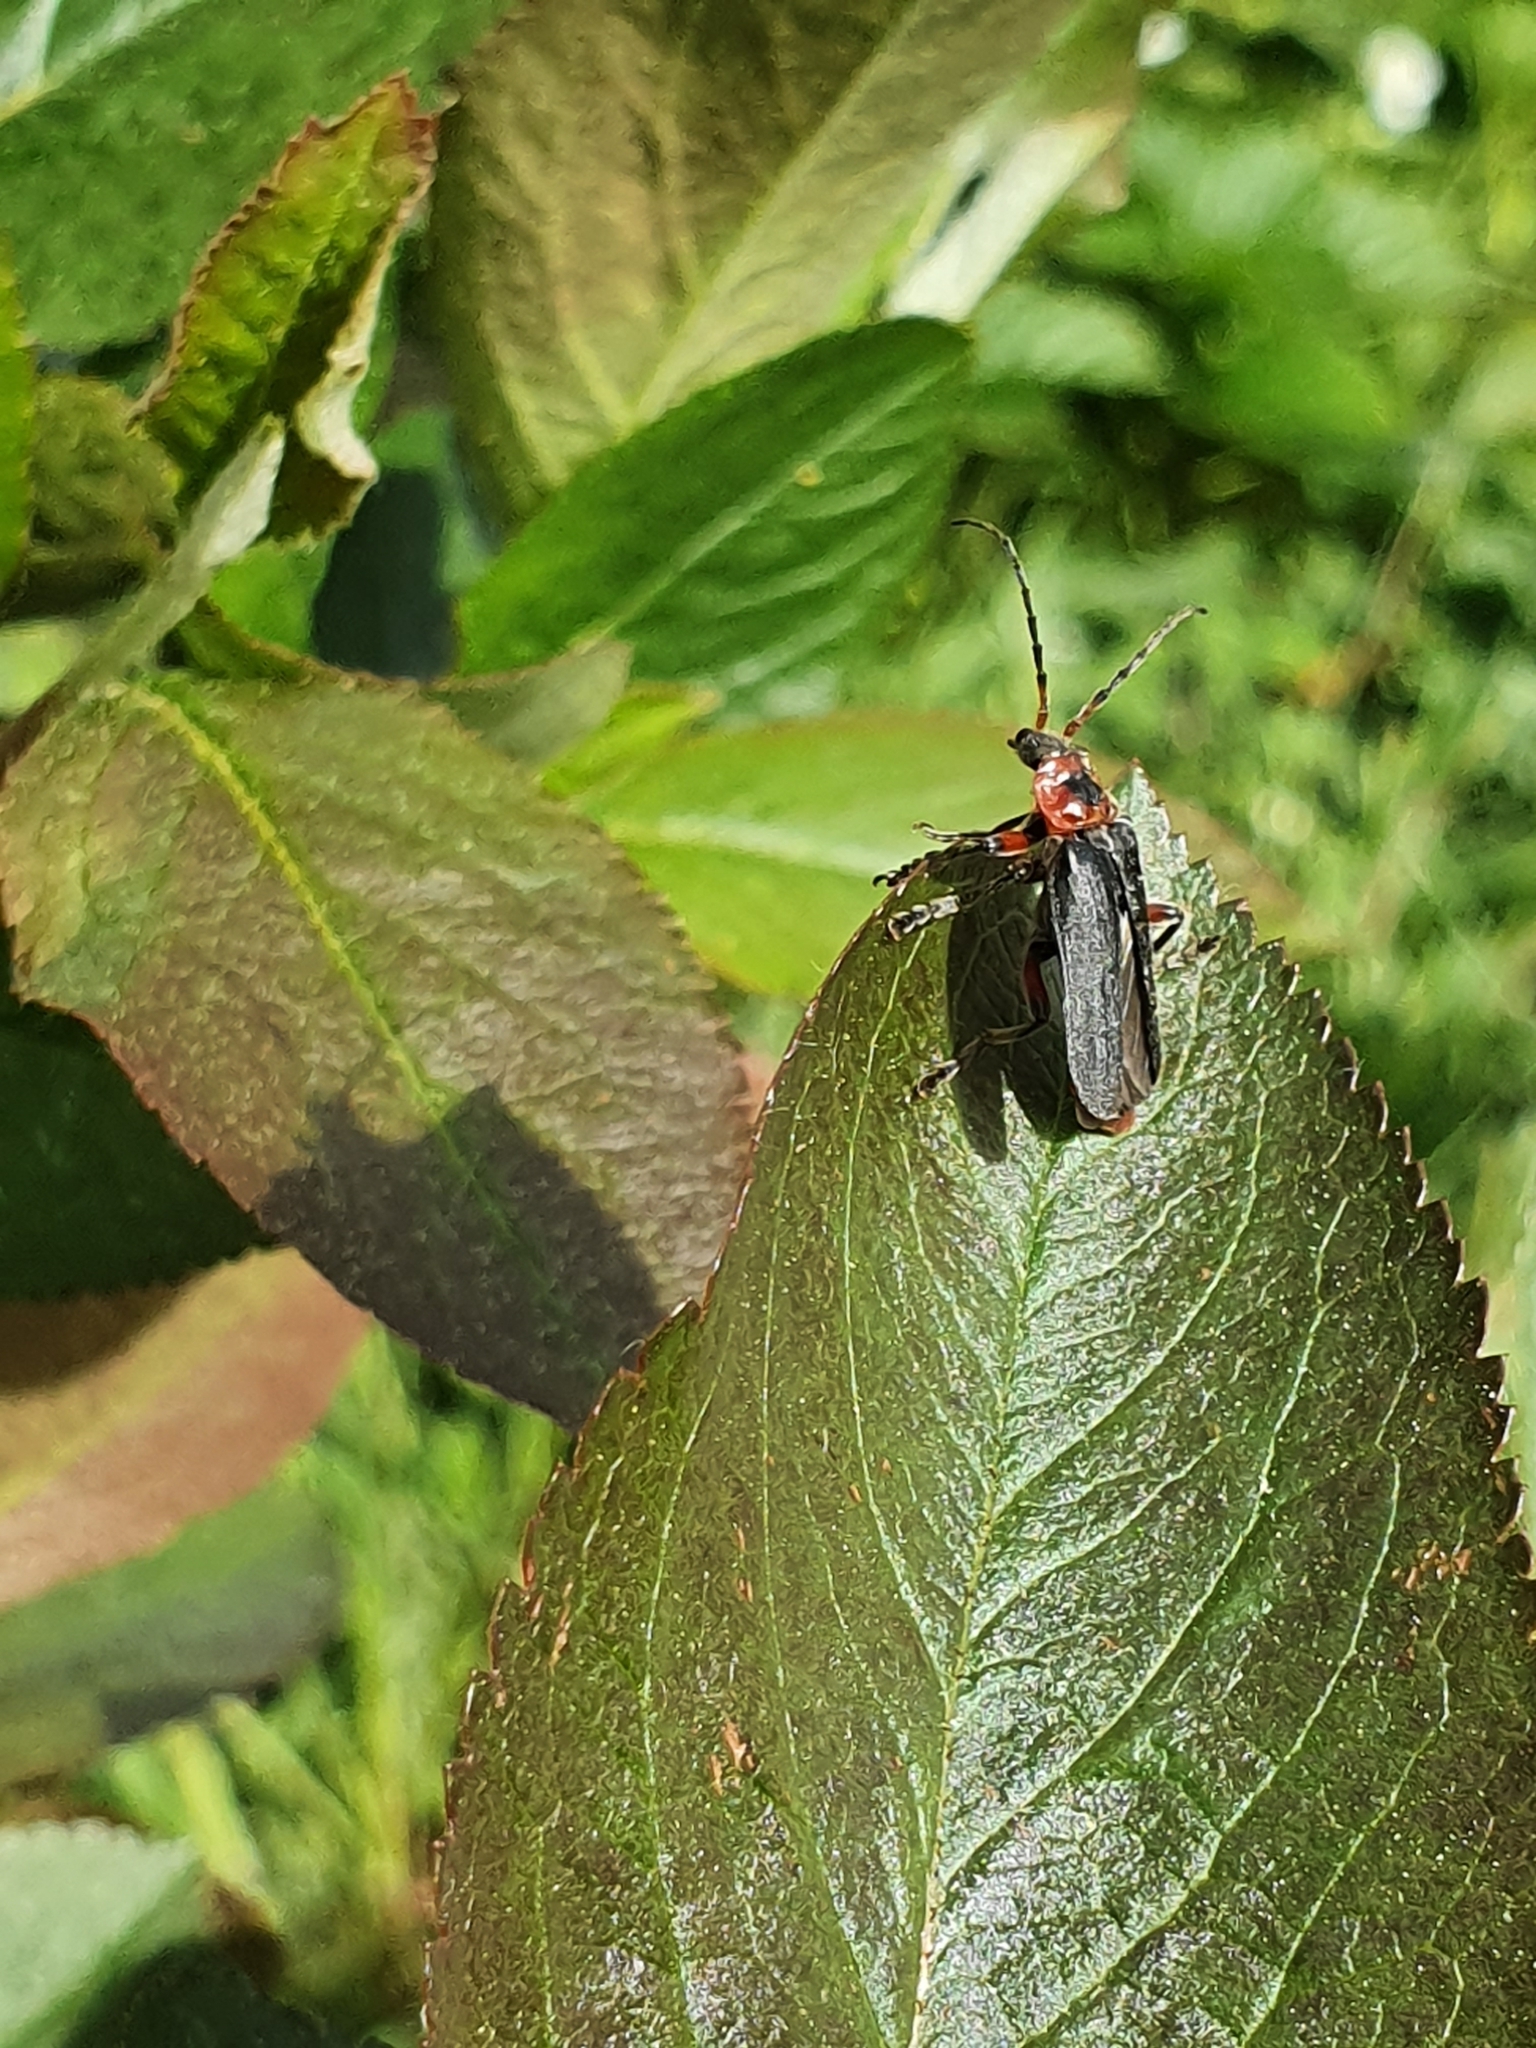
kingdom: Animalia
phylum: Arthropoda
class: Insecta
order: Coleoptera
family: Cantharidae
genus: Cantharis
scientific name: Cantharis rustica
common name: Soldier beetle
